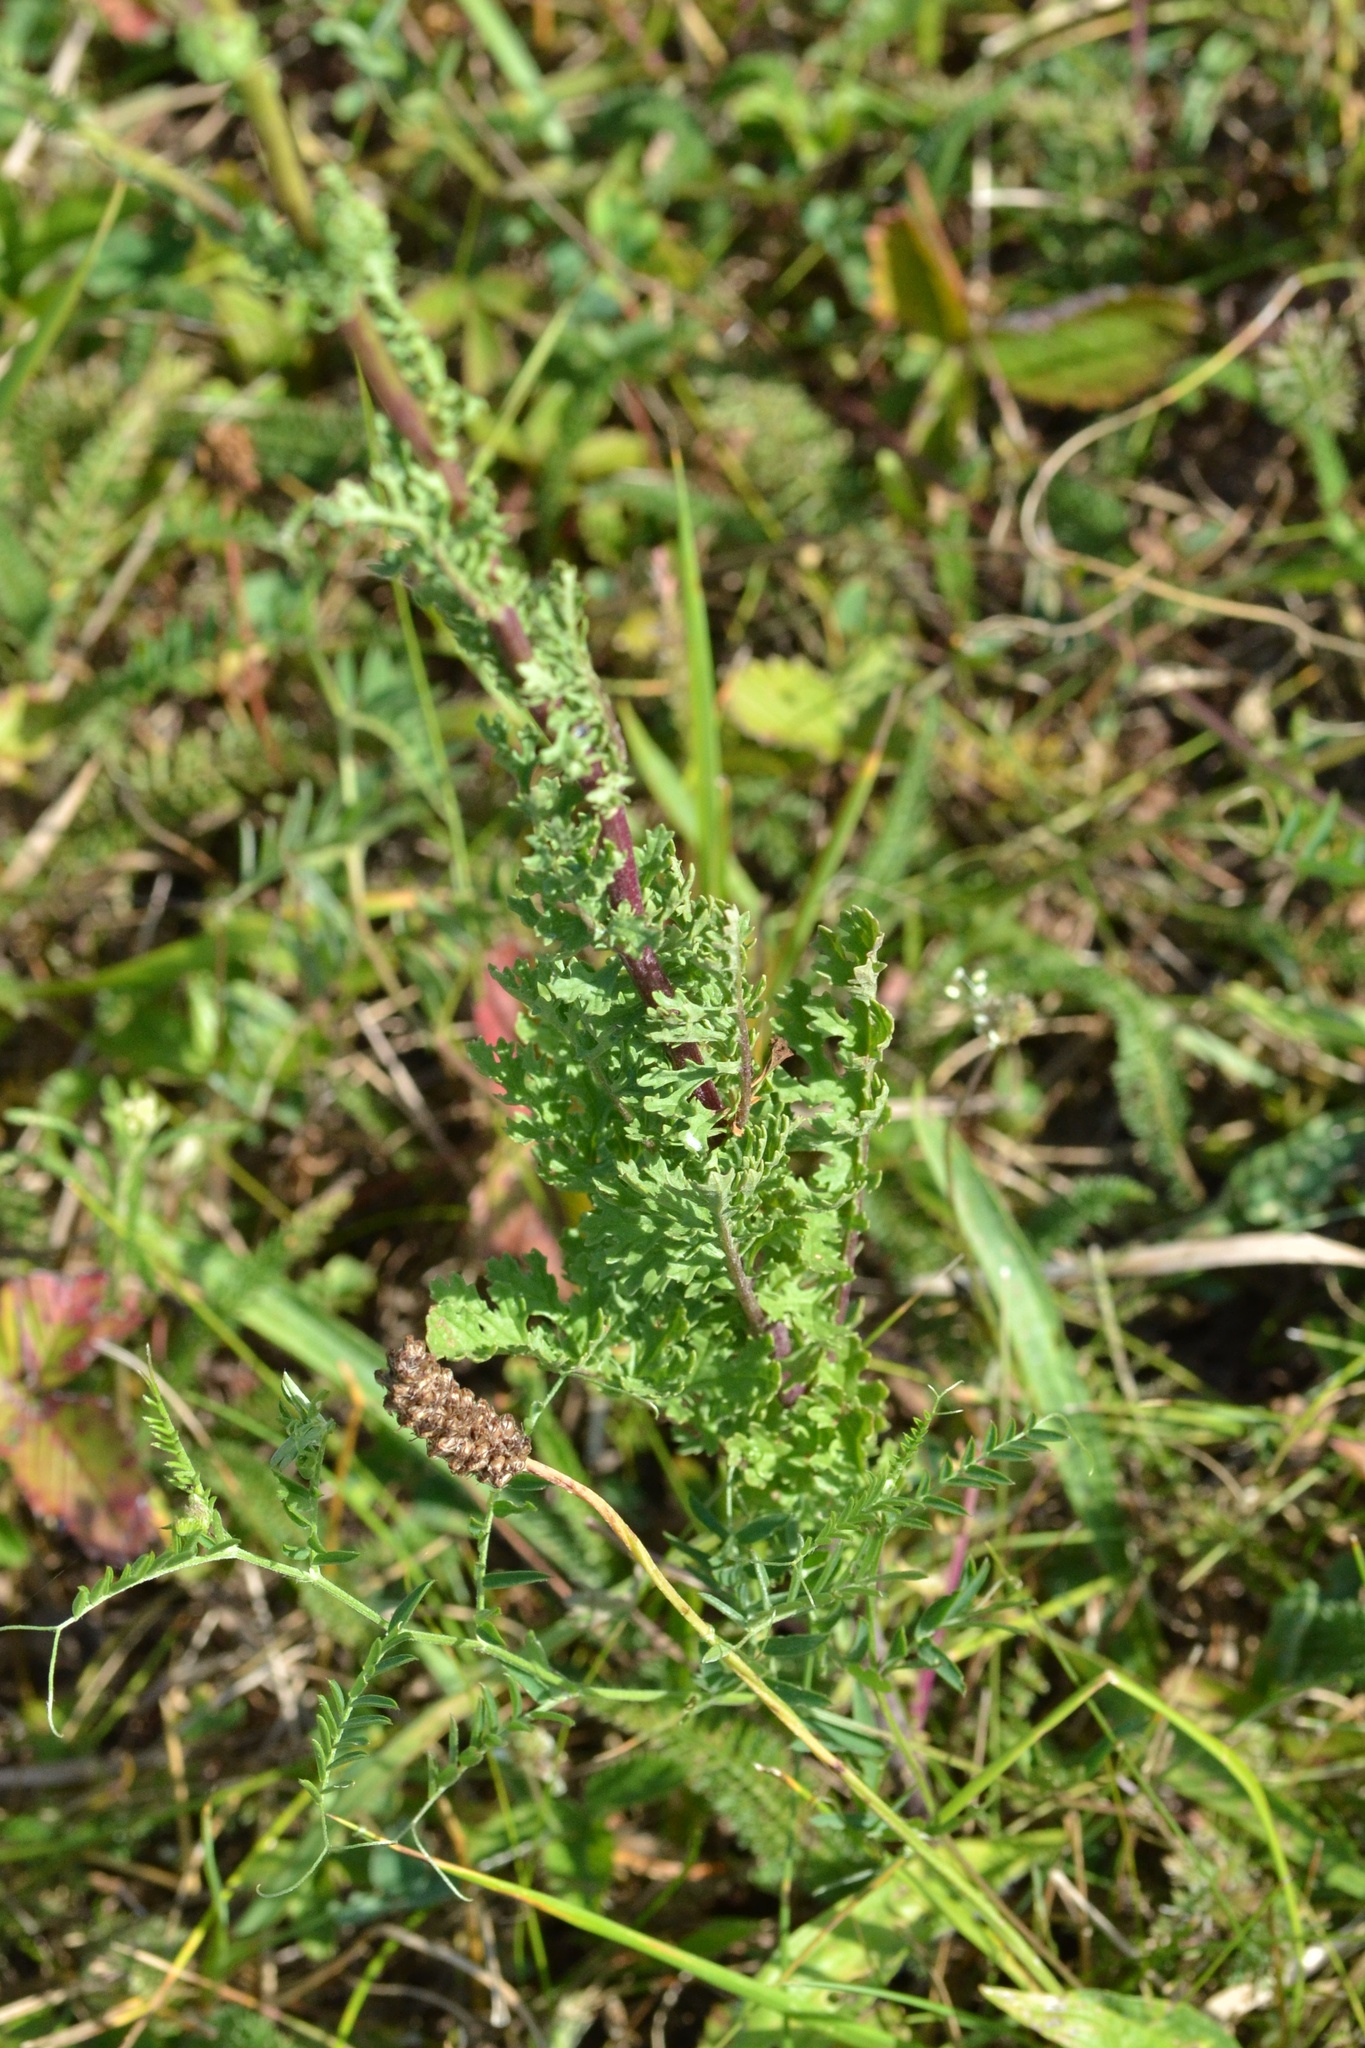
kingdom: Plantae
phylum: Tracheophyta
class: Magnoliopsida
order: Asterales
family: Asteraceae
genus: Jacobaea
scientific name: Jacobaea vulgaris
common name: Stinking willie
